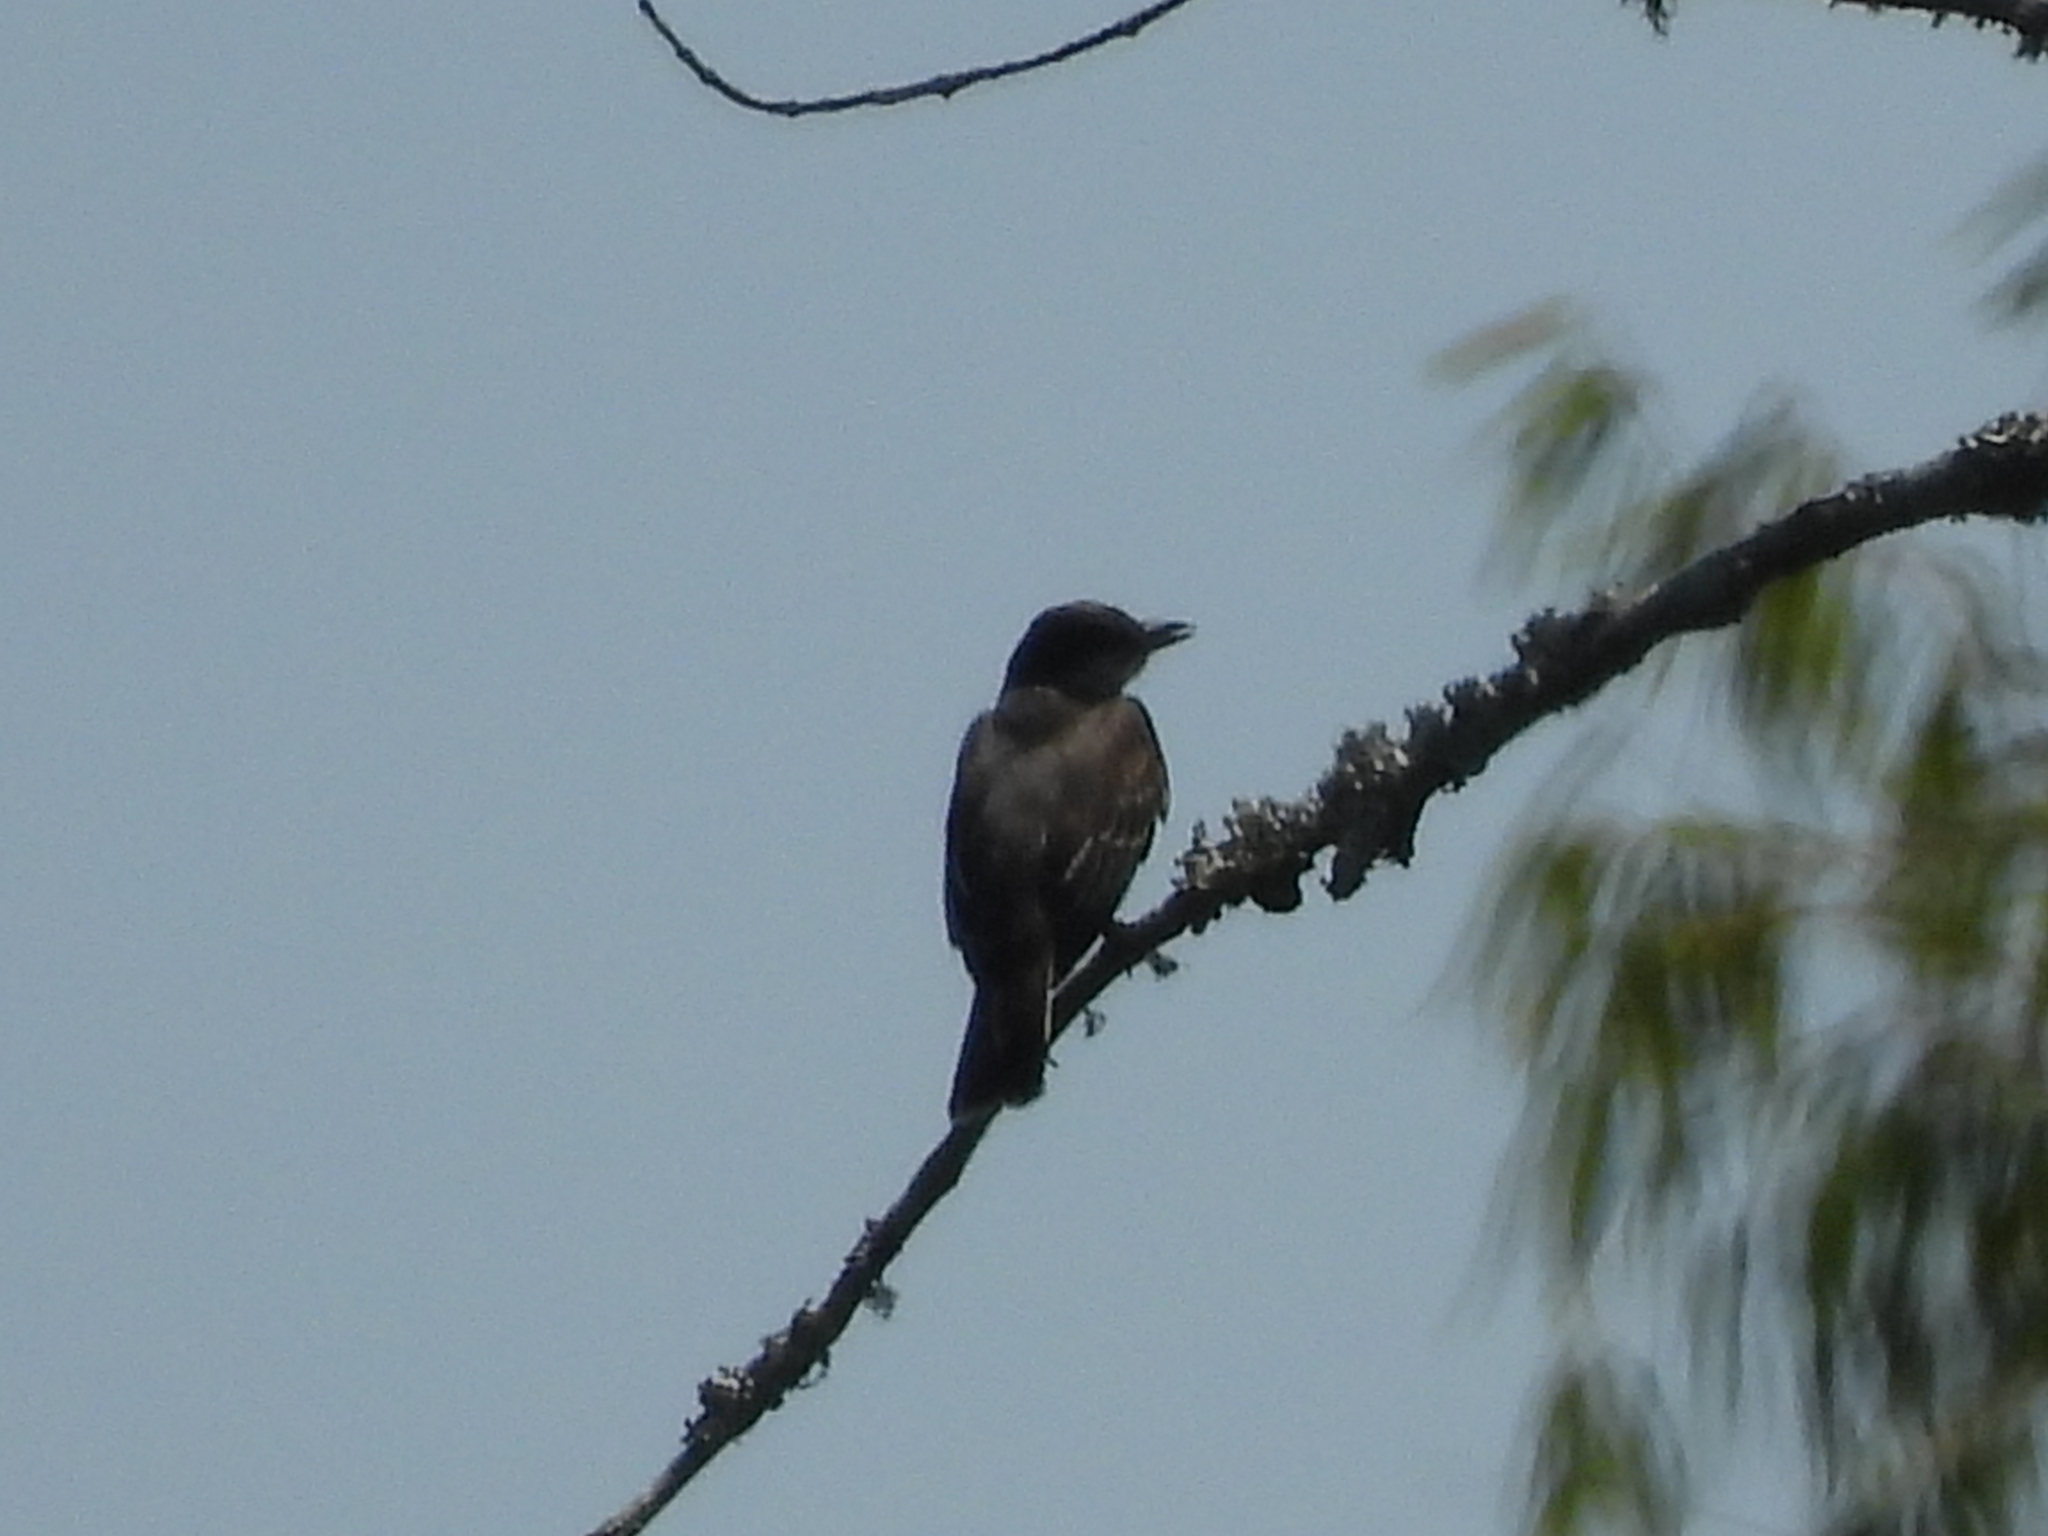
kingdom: Animalia
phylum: Chordata
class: Aves
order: Passeriformes
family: Tyrannidae
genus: Tyrannus
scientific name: Tyrannus tyrannus
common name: Eastern kingbird
